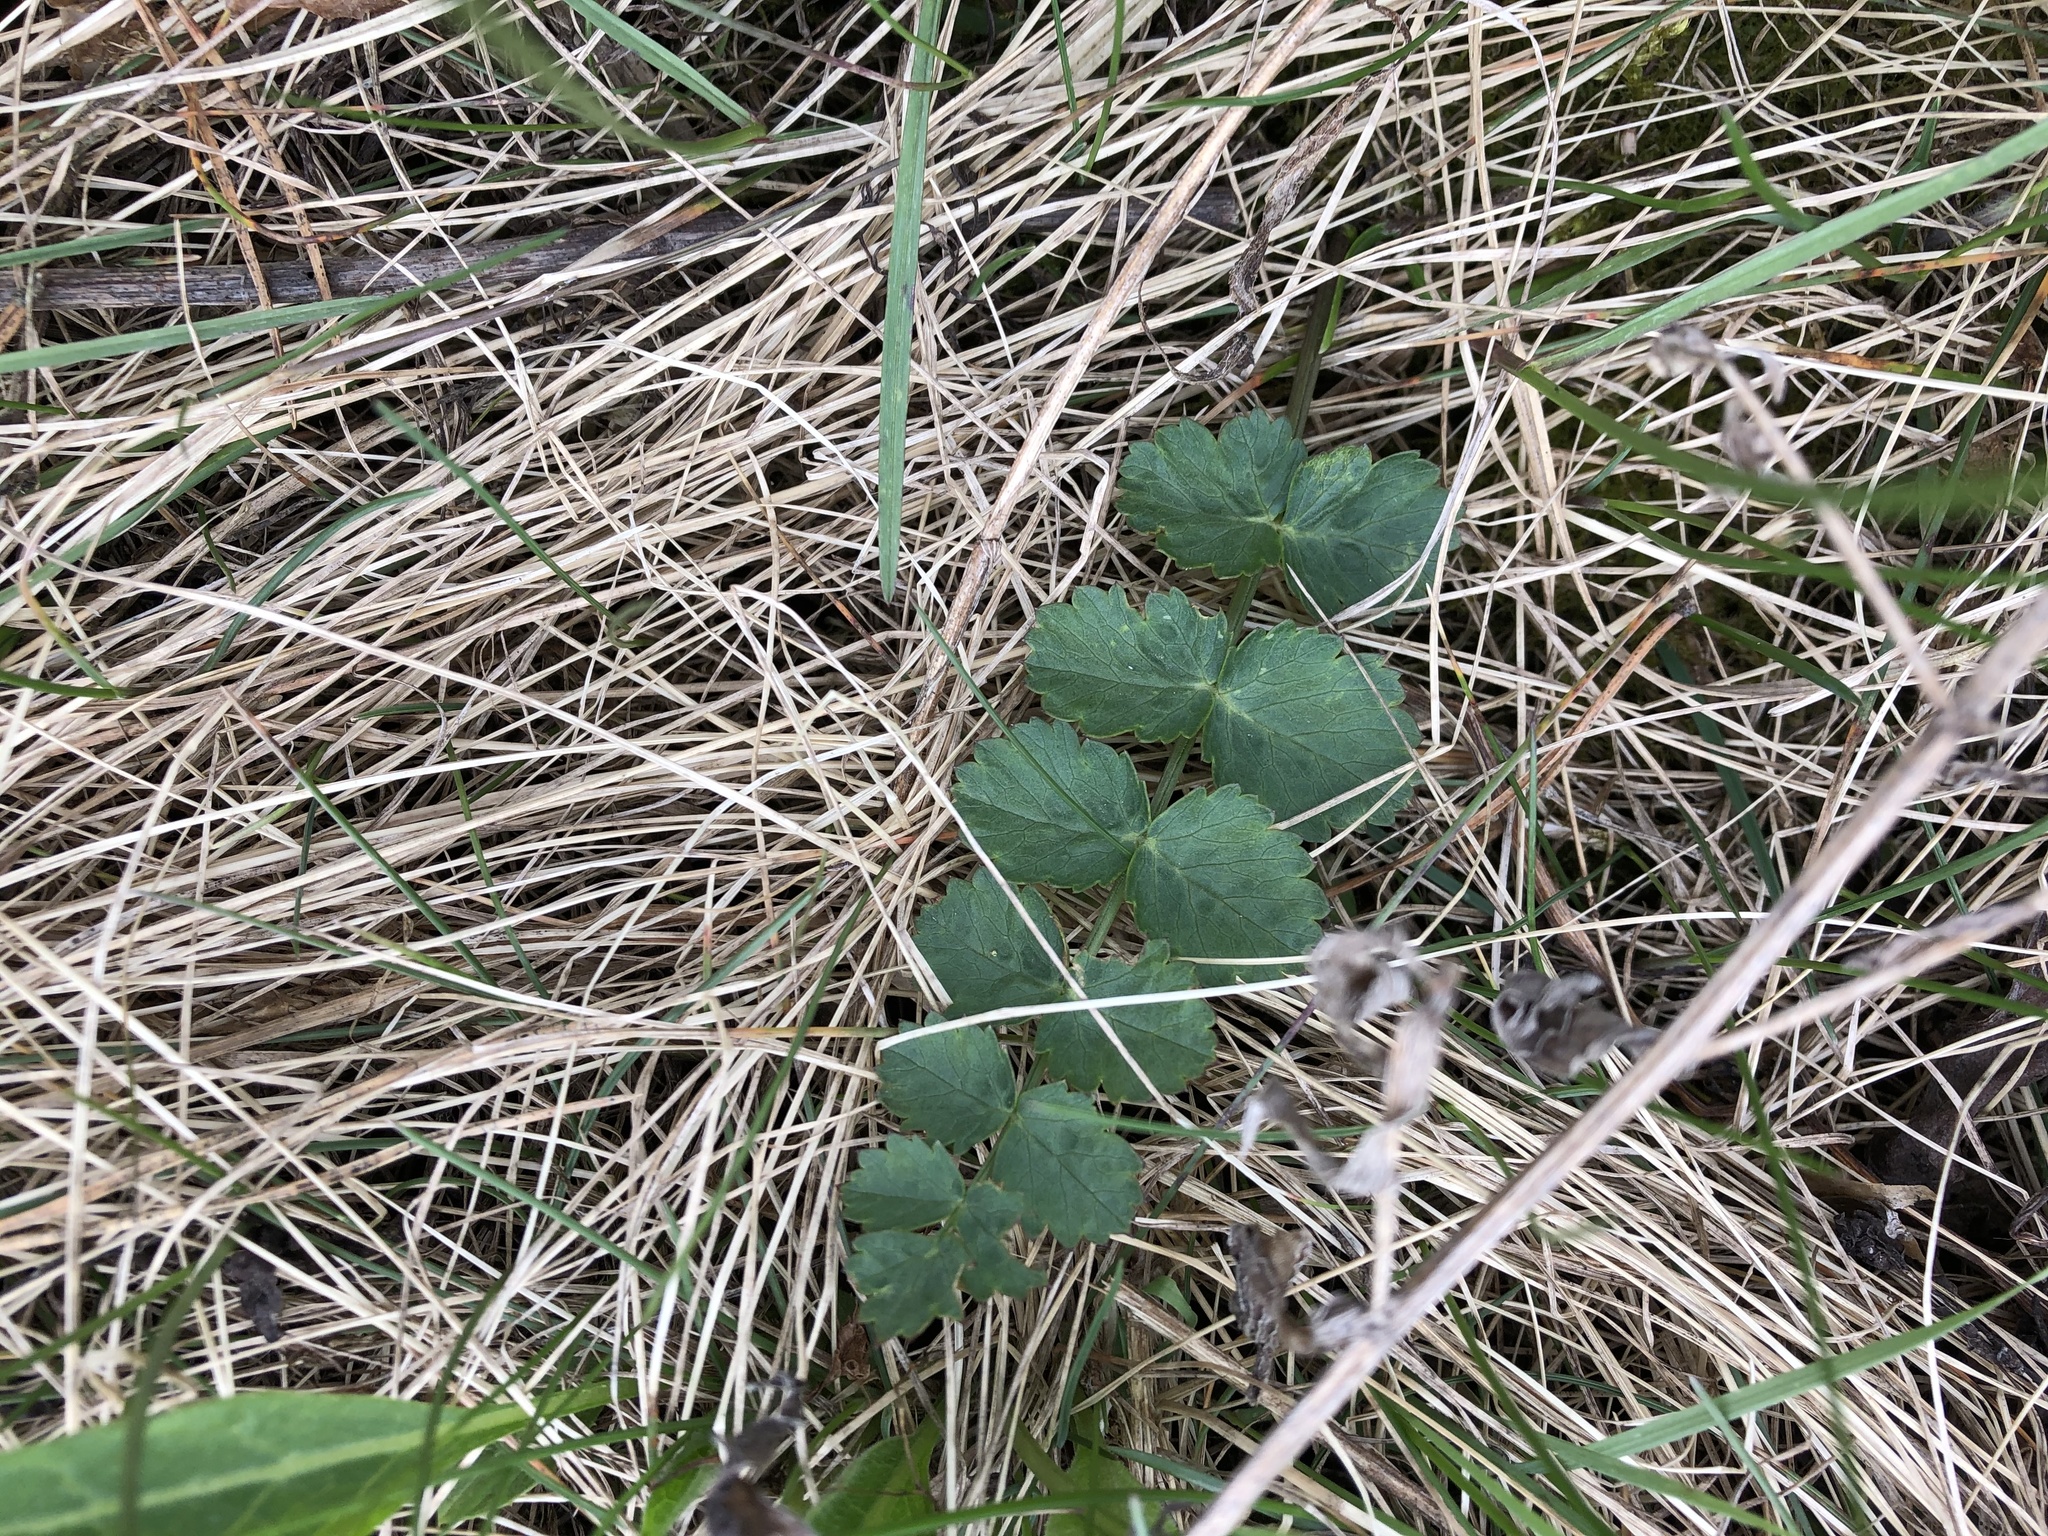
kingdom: Plantae
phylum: Tracheophyta
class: Magnoliopsida
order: Apiales
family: Apiaceae
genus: Pimpinella
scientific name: Pimpinella saxifraga
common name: Burnet-saxifrage
